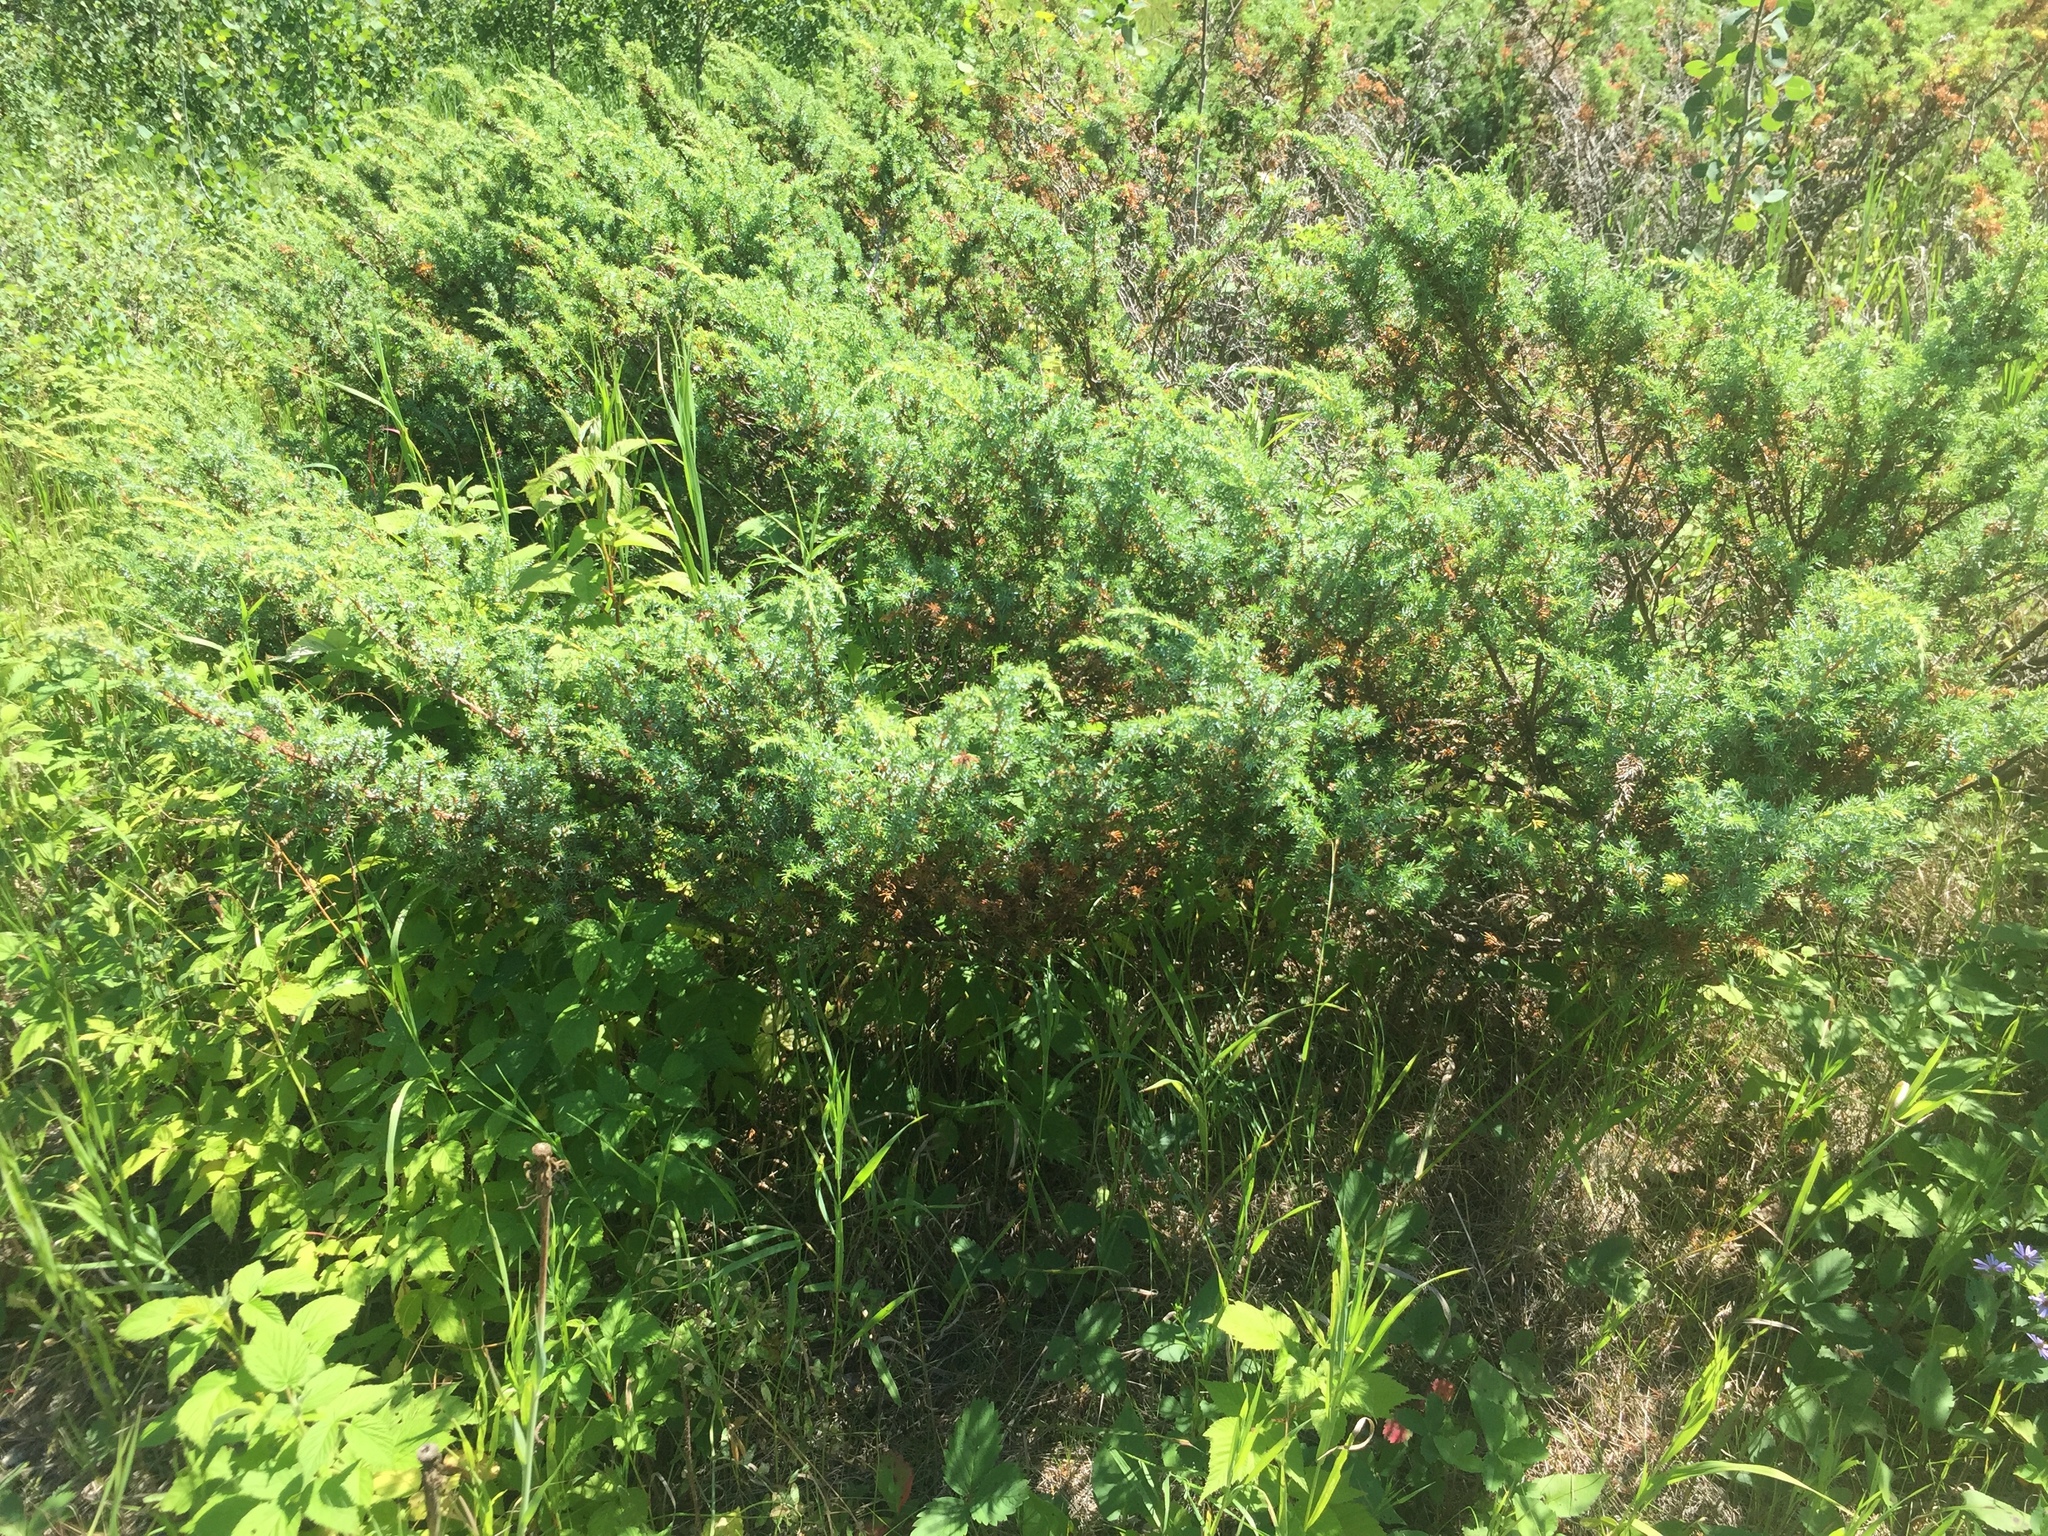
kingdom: Plantae
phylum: Tracheophyta
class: Pinopsida
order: Pinales
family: Cupressaceae
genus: Juniperus
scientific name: Juniperus communis
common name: Common juniper
